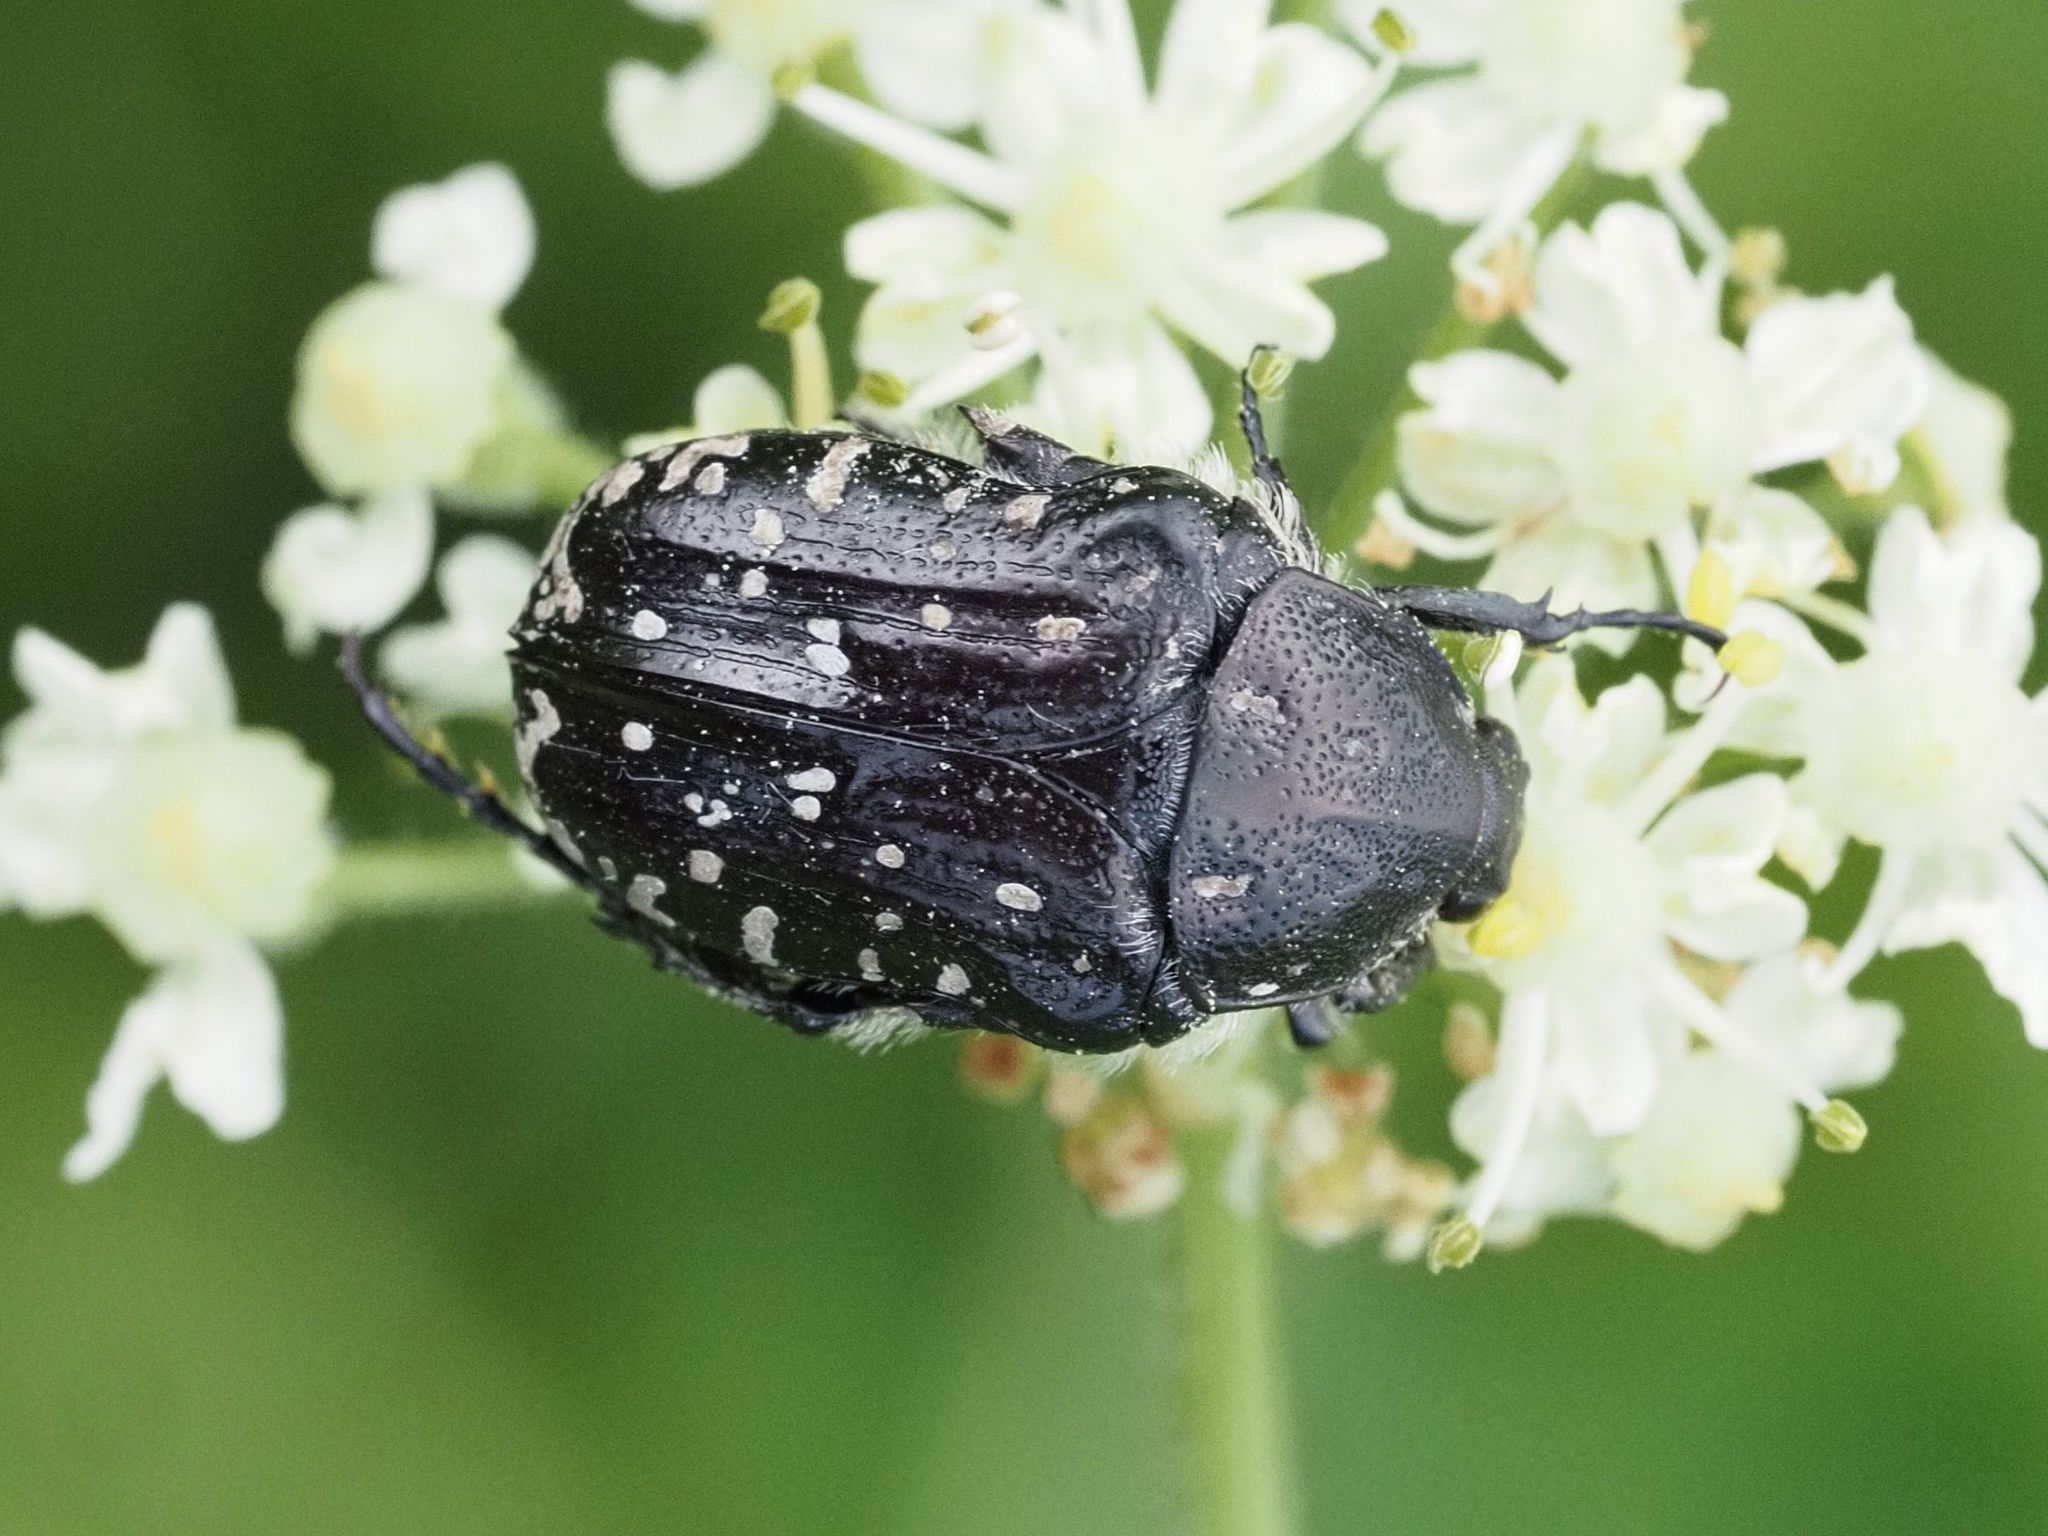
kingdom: Animalia
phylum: Arthropoda
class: Insecta
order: Coleoptera
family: Scarabaeidae
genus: Oxythyrea
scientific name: Oxythyrea funesta
